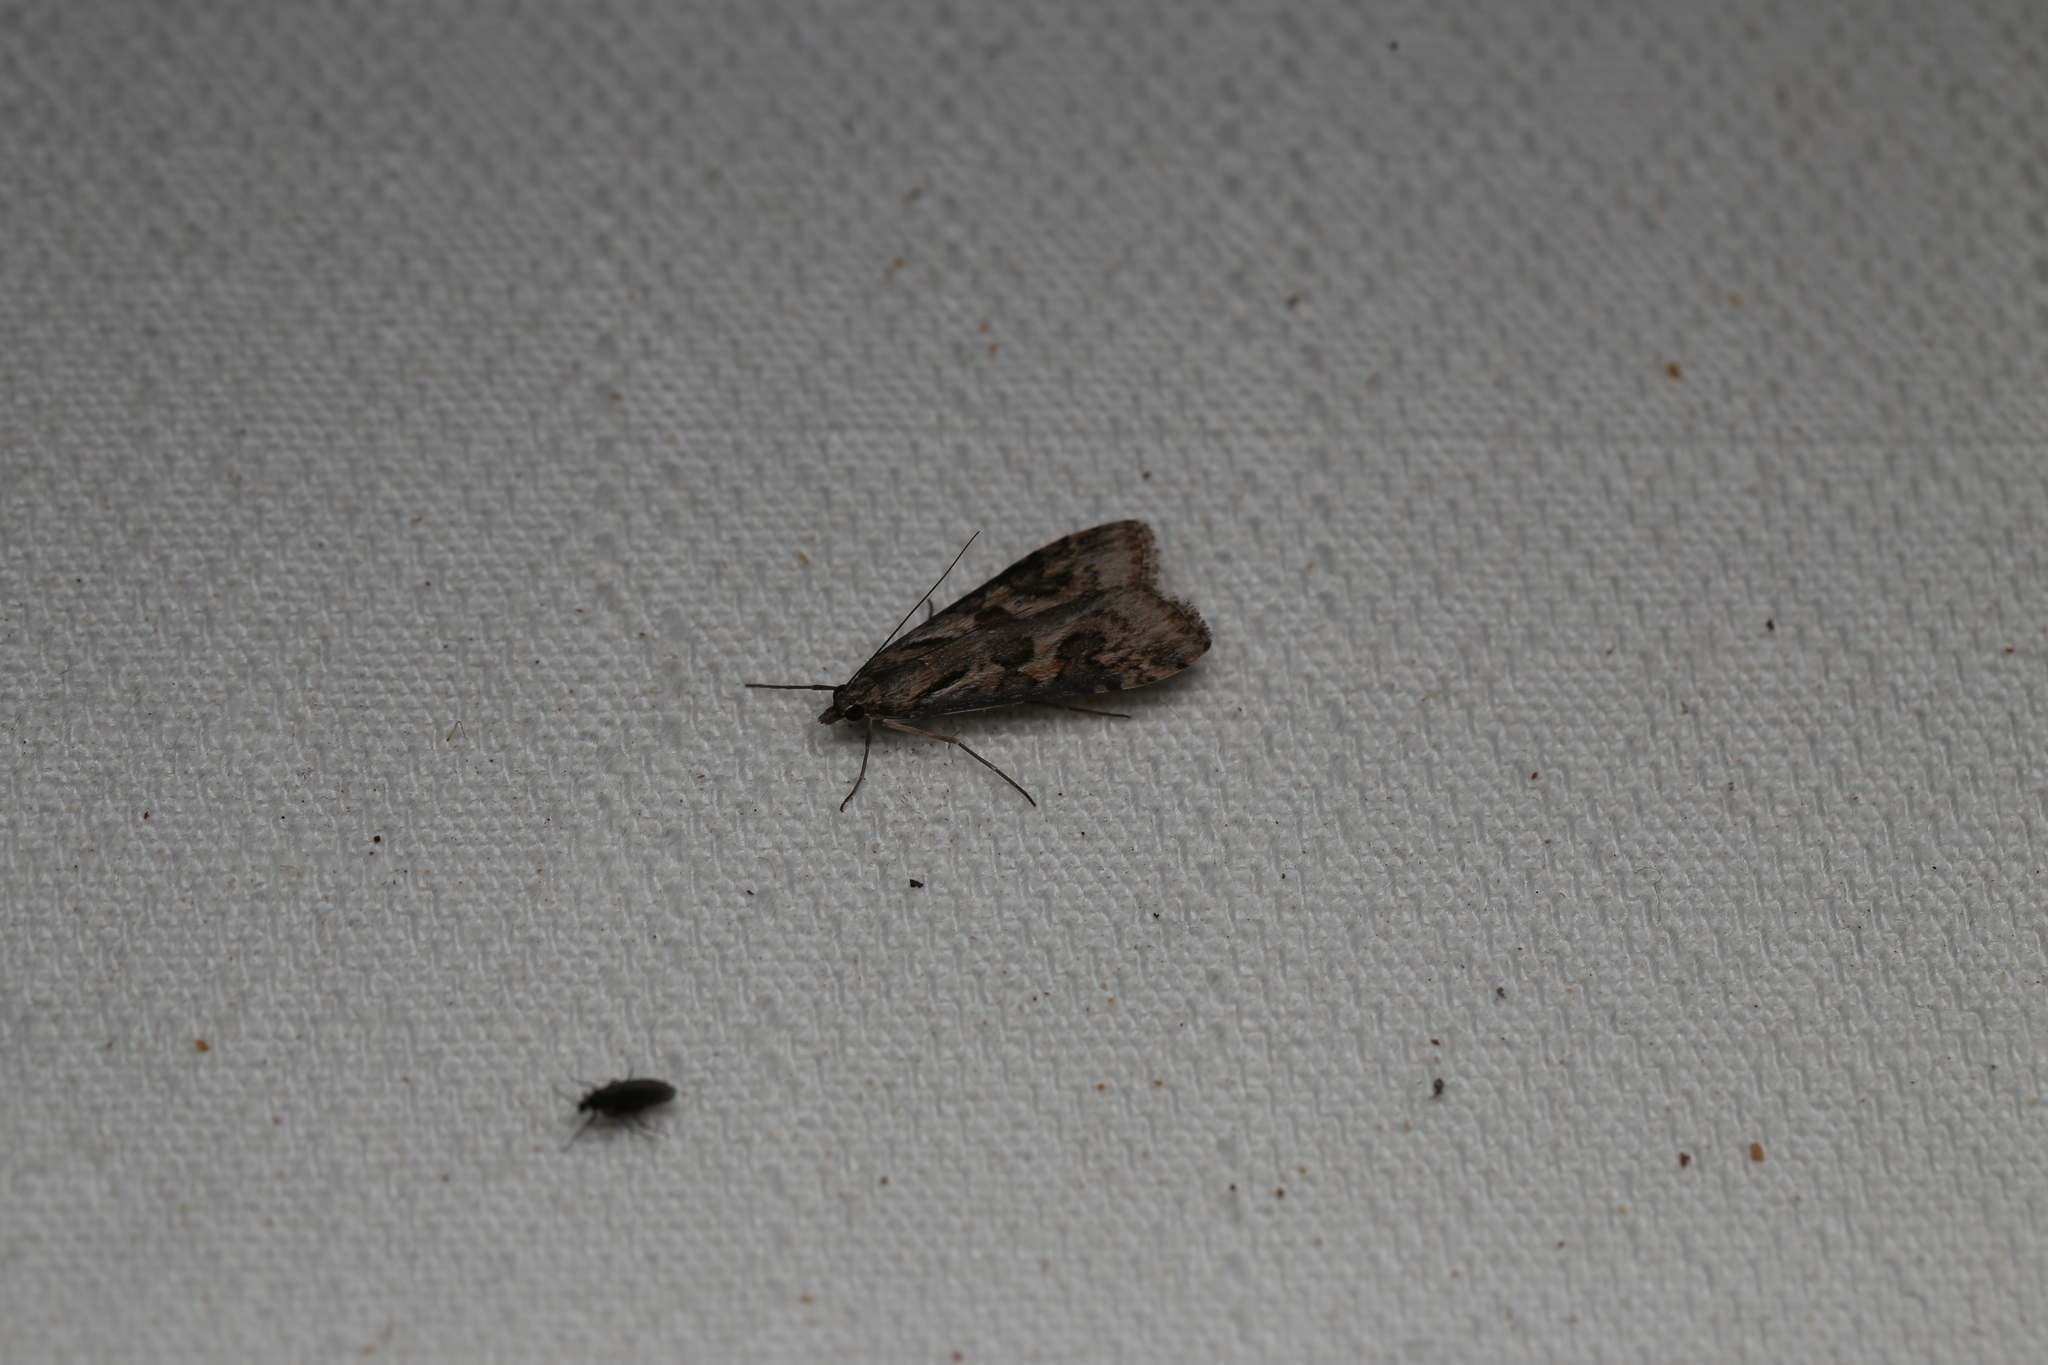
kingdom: Animalia
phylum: Arthropoda
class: Insecta
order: Lepidoptera
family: Crambidae
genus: Nomophila
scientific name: Nomophila corticalis
